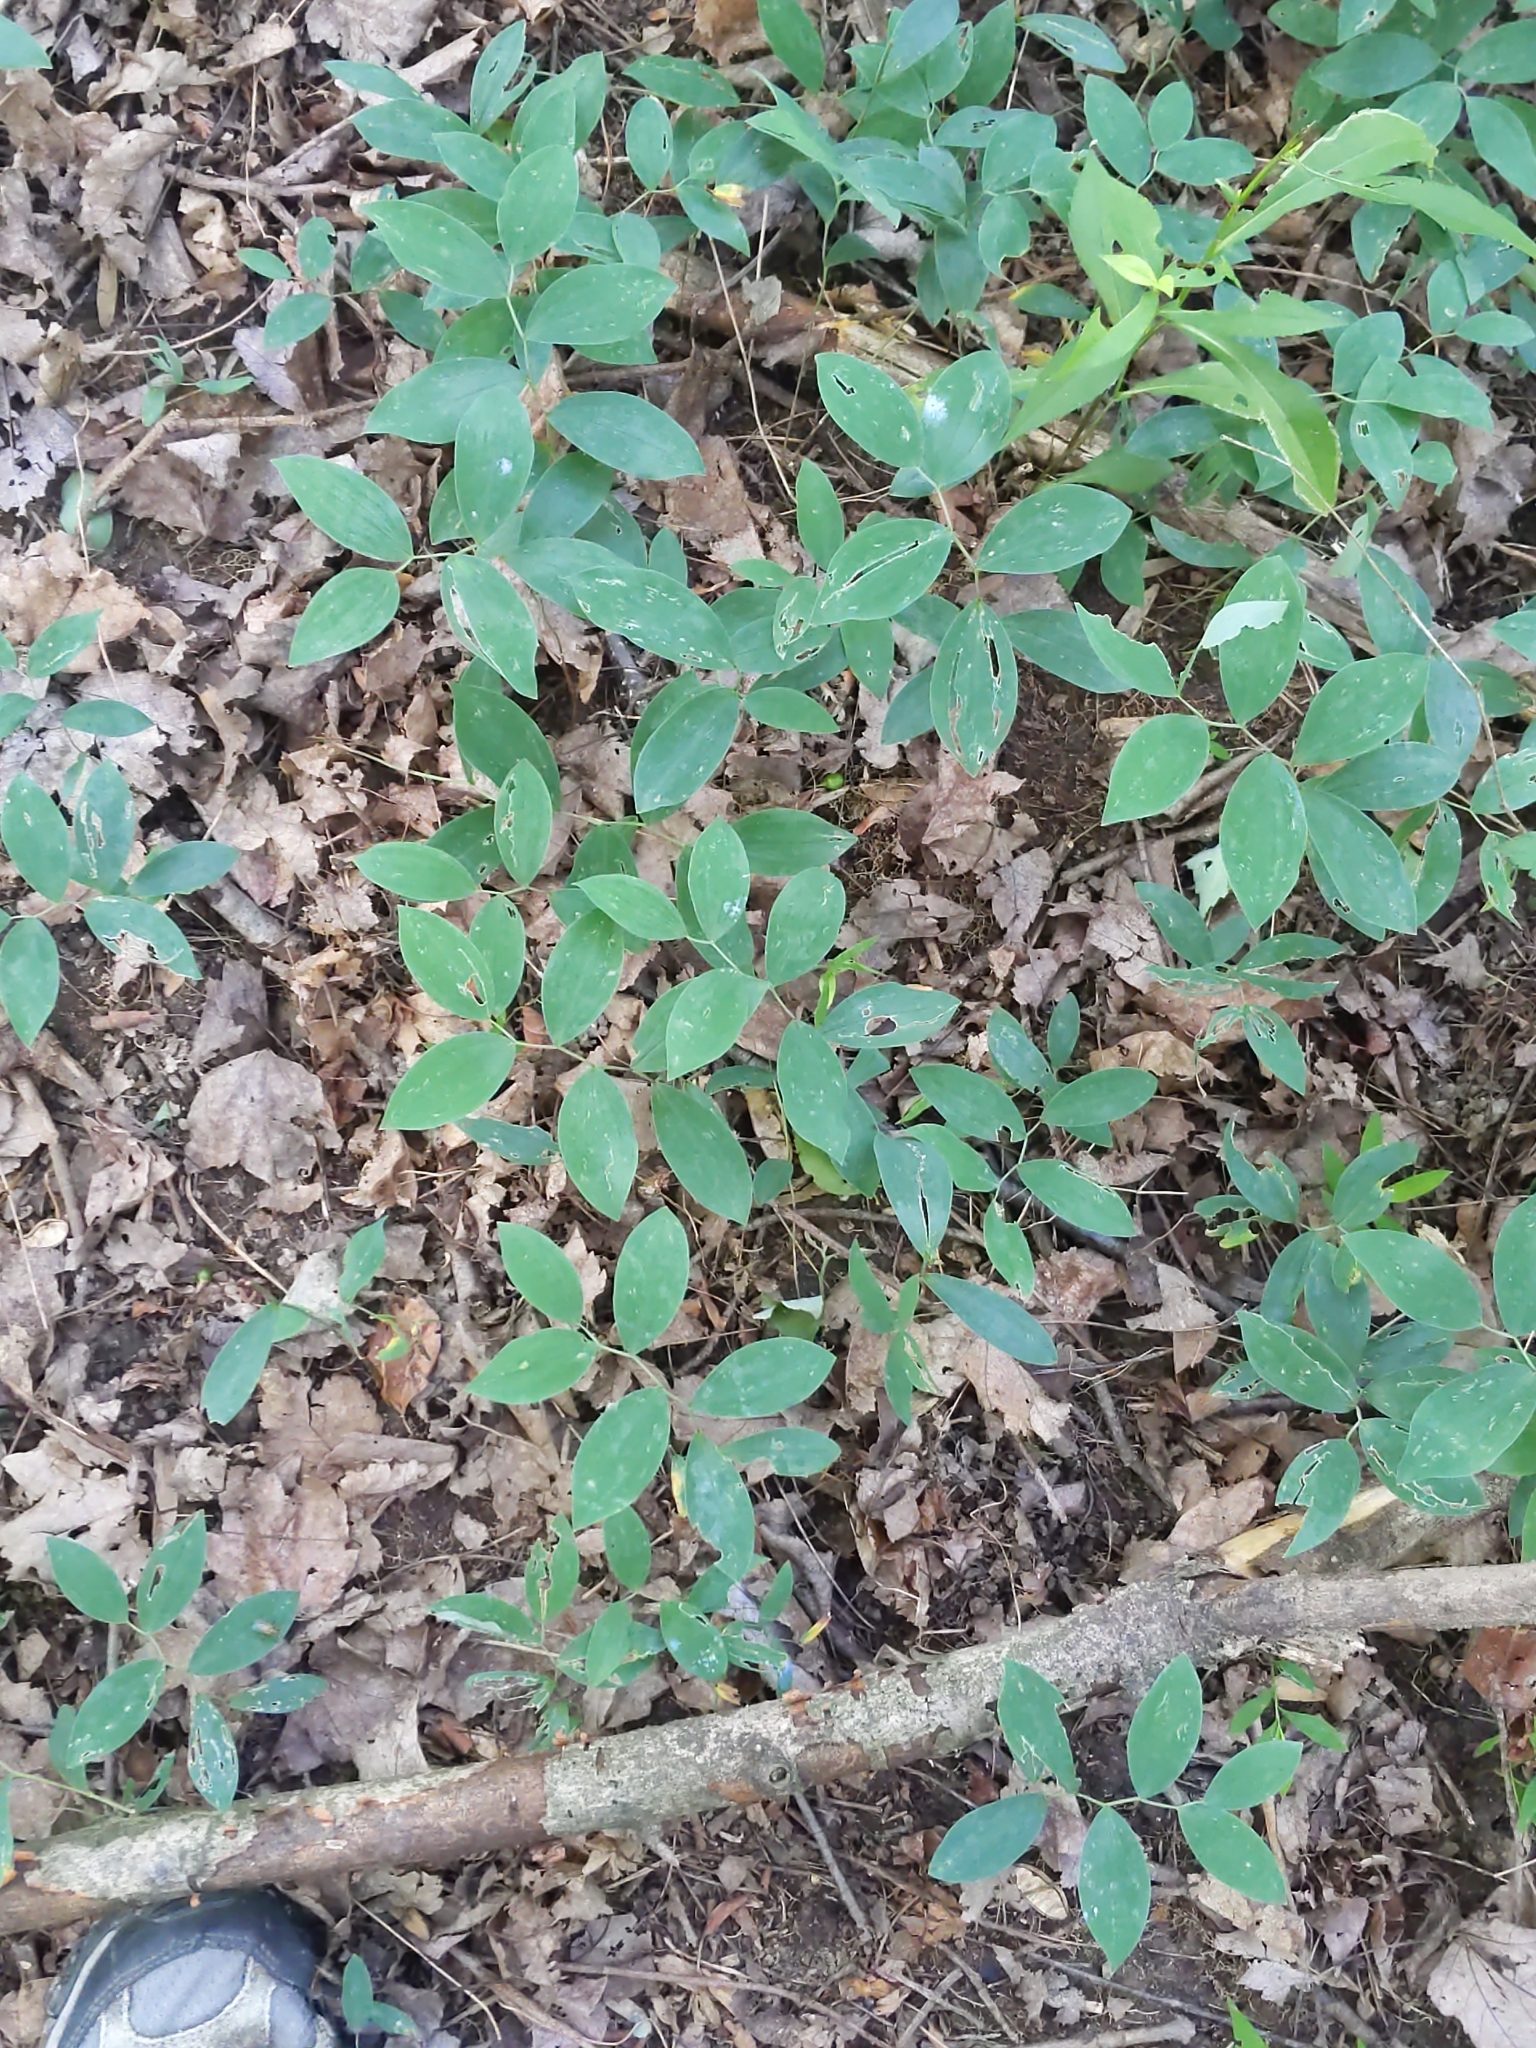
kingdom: Plantae
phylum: Tracheophyta
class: Liliopsida
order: Liliales
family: Colchicaceae
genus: Uvularia
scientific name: Uvularia sessilifolia
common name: Straw-lily
